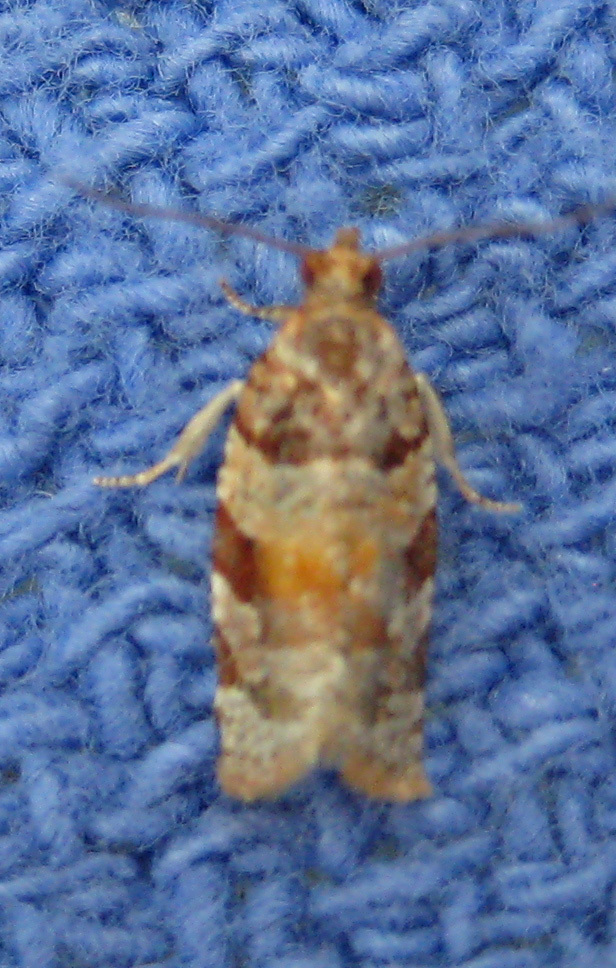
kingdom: Animalia
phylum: Arthropoda
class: Insecta
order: Lepidoptera
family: Tortricidae
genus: Argyrotaenia
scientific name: Argyrotaenia kimballi
